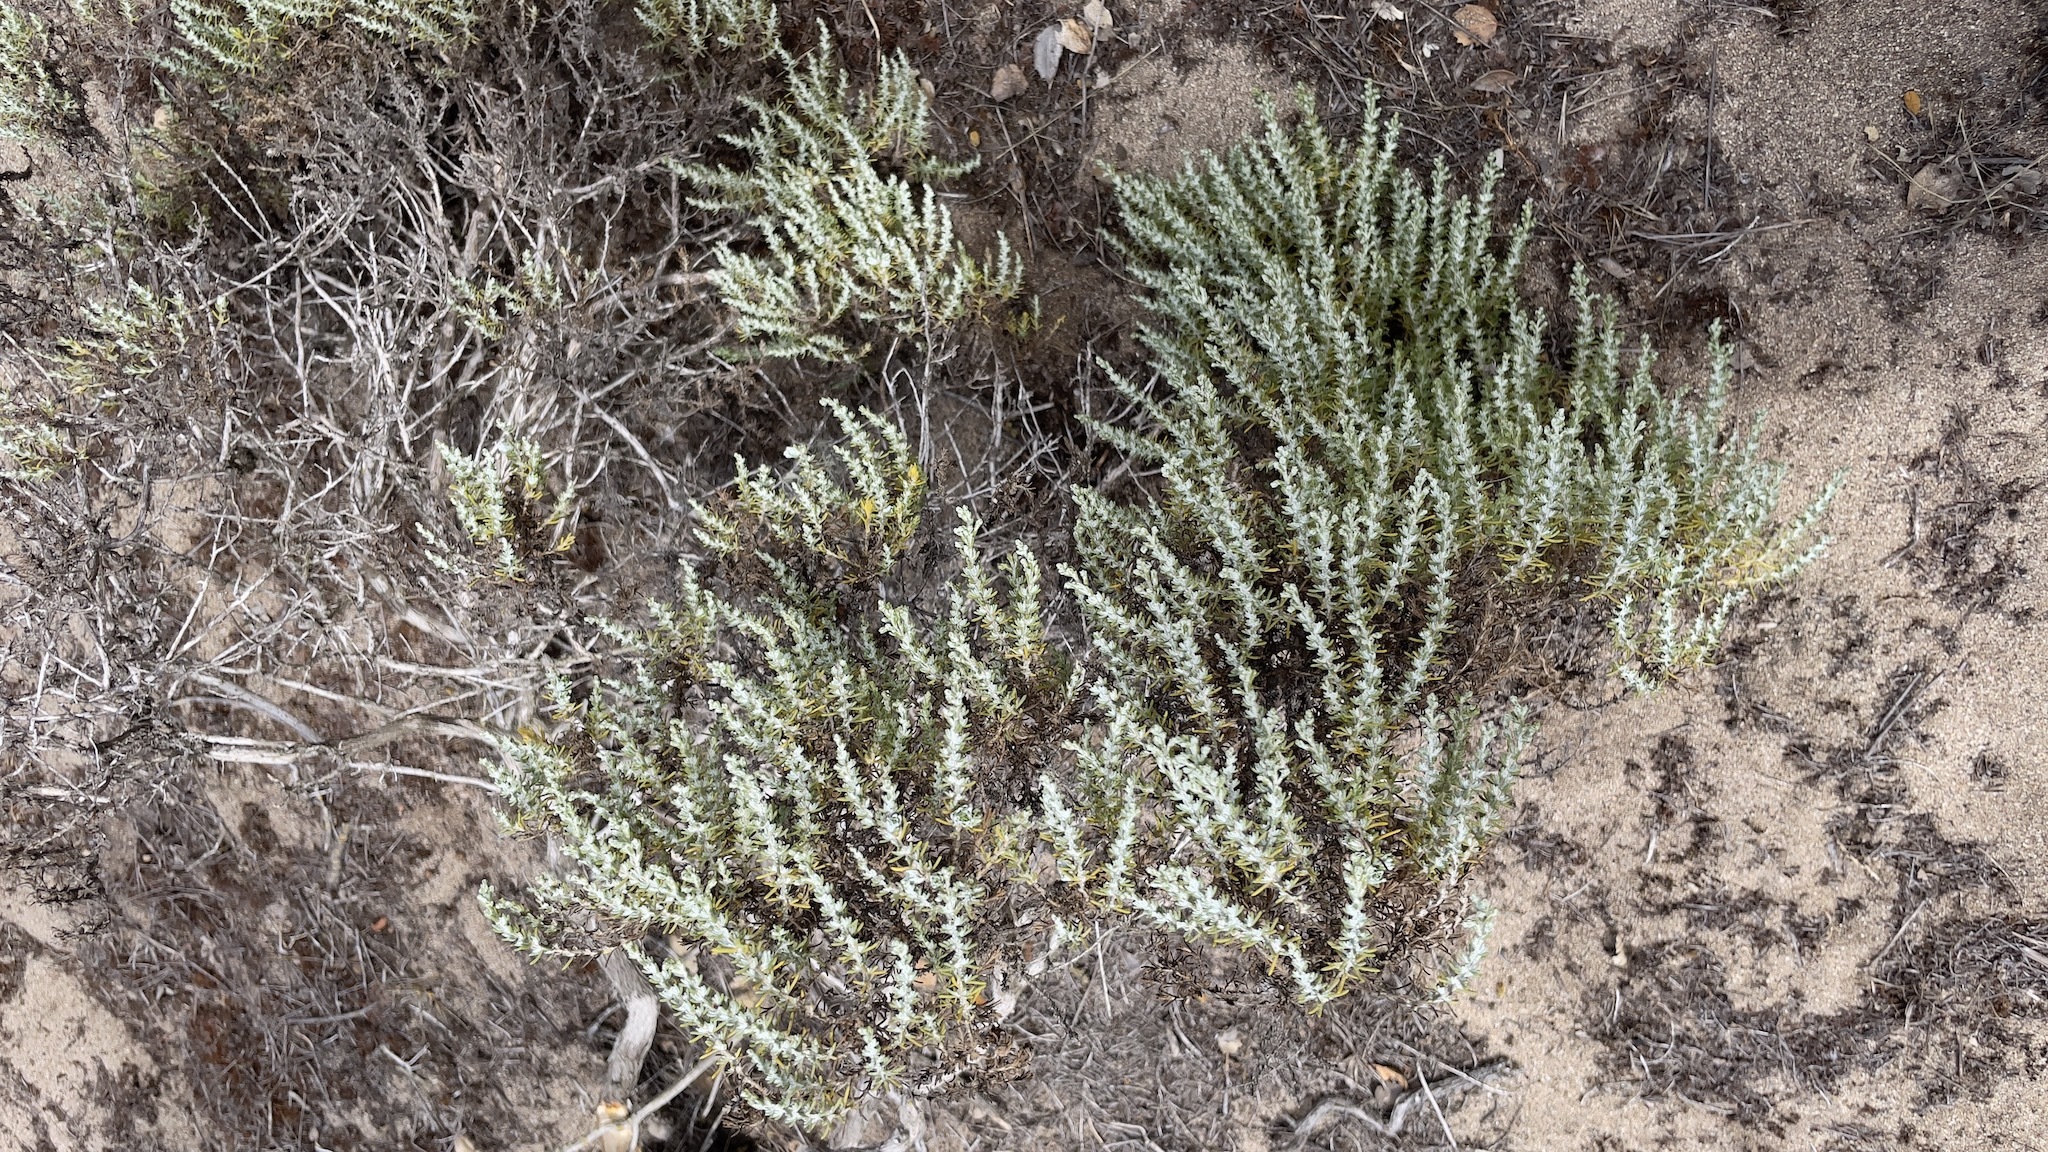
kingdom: Plantae
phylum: Tracheophyta
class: Magnoliopsida
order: Asterales
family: Asteraceae
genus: Ericameria
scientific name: Ericameria ericoides
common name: California goldenbush
